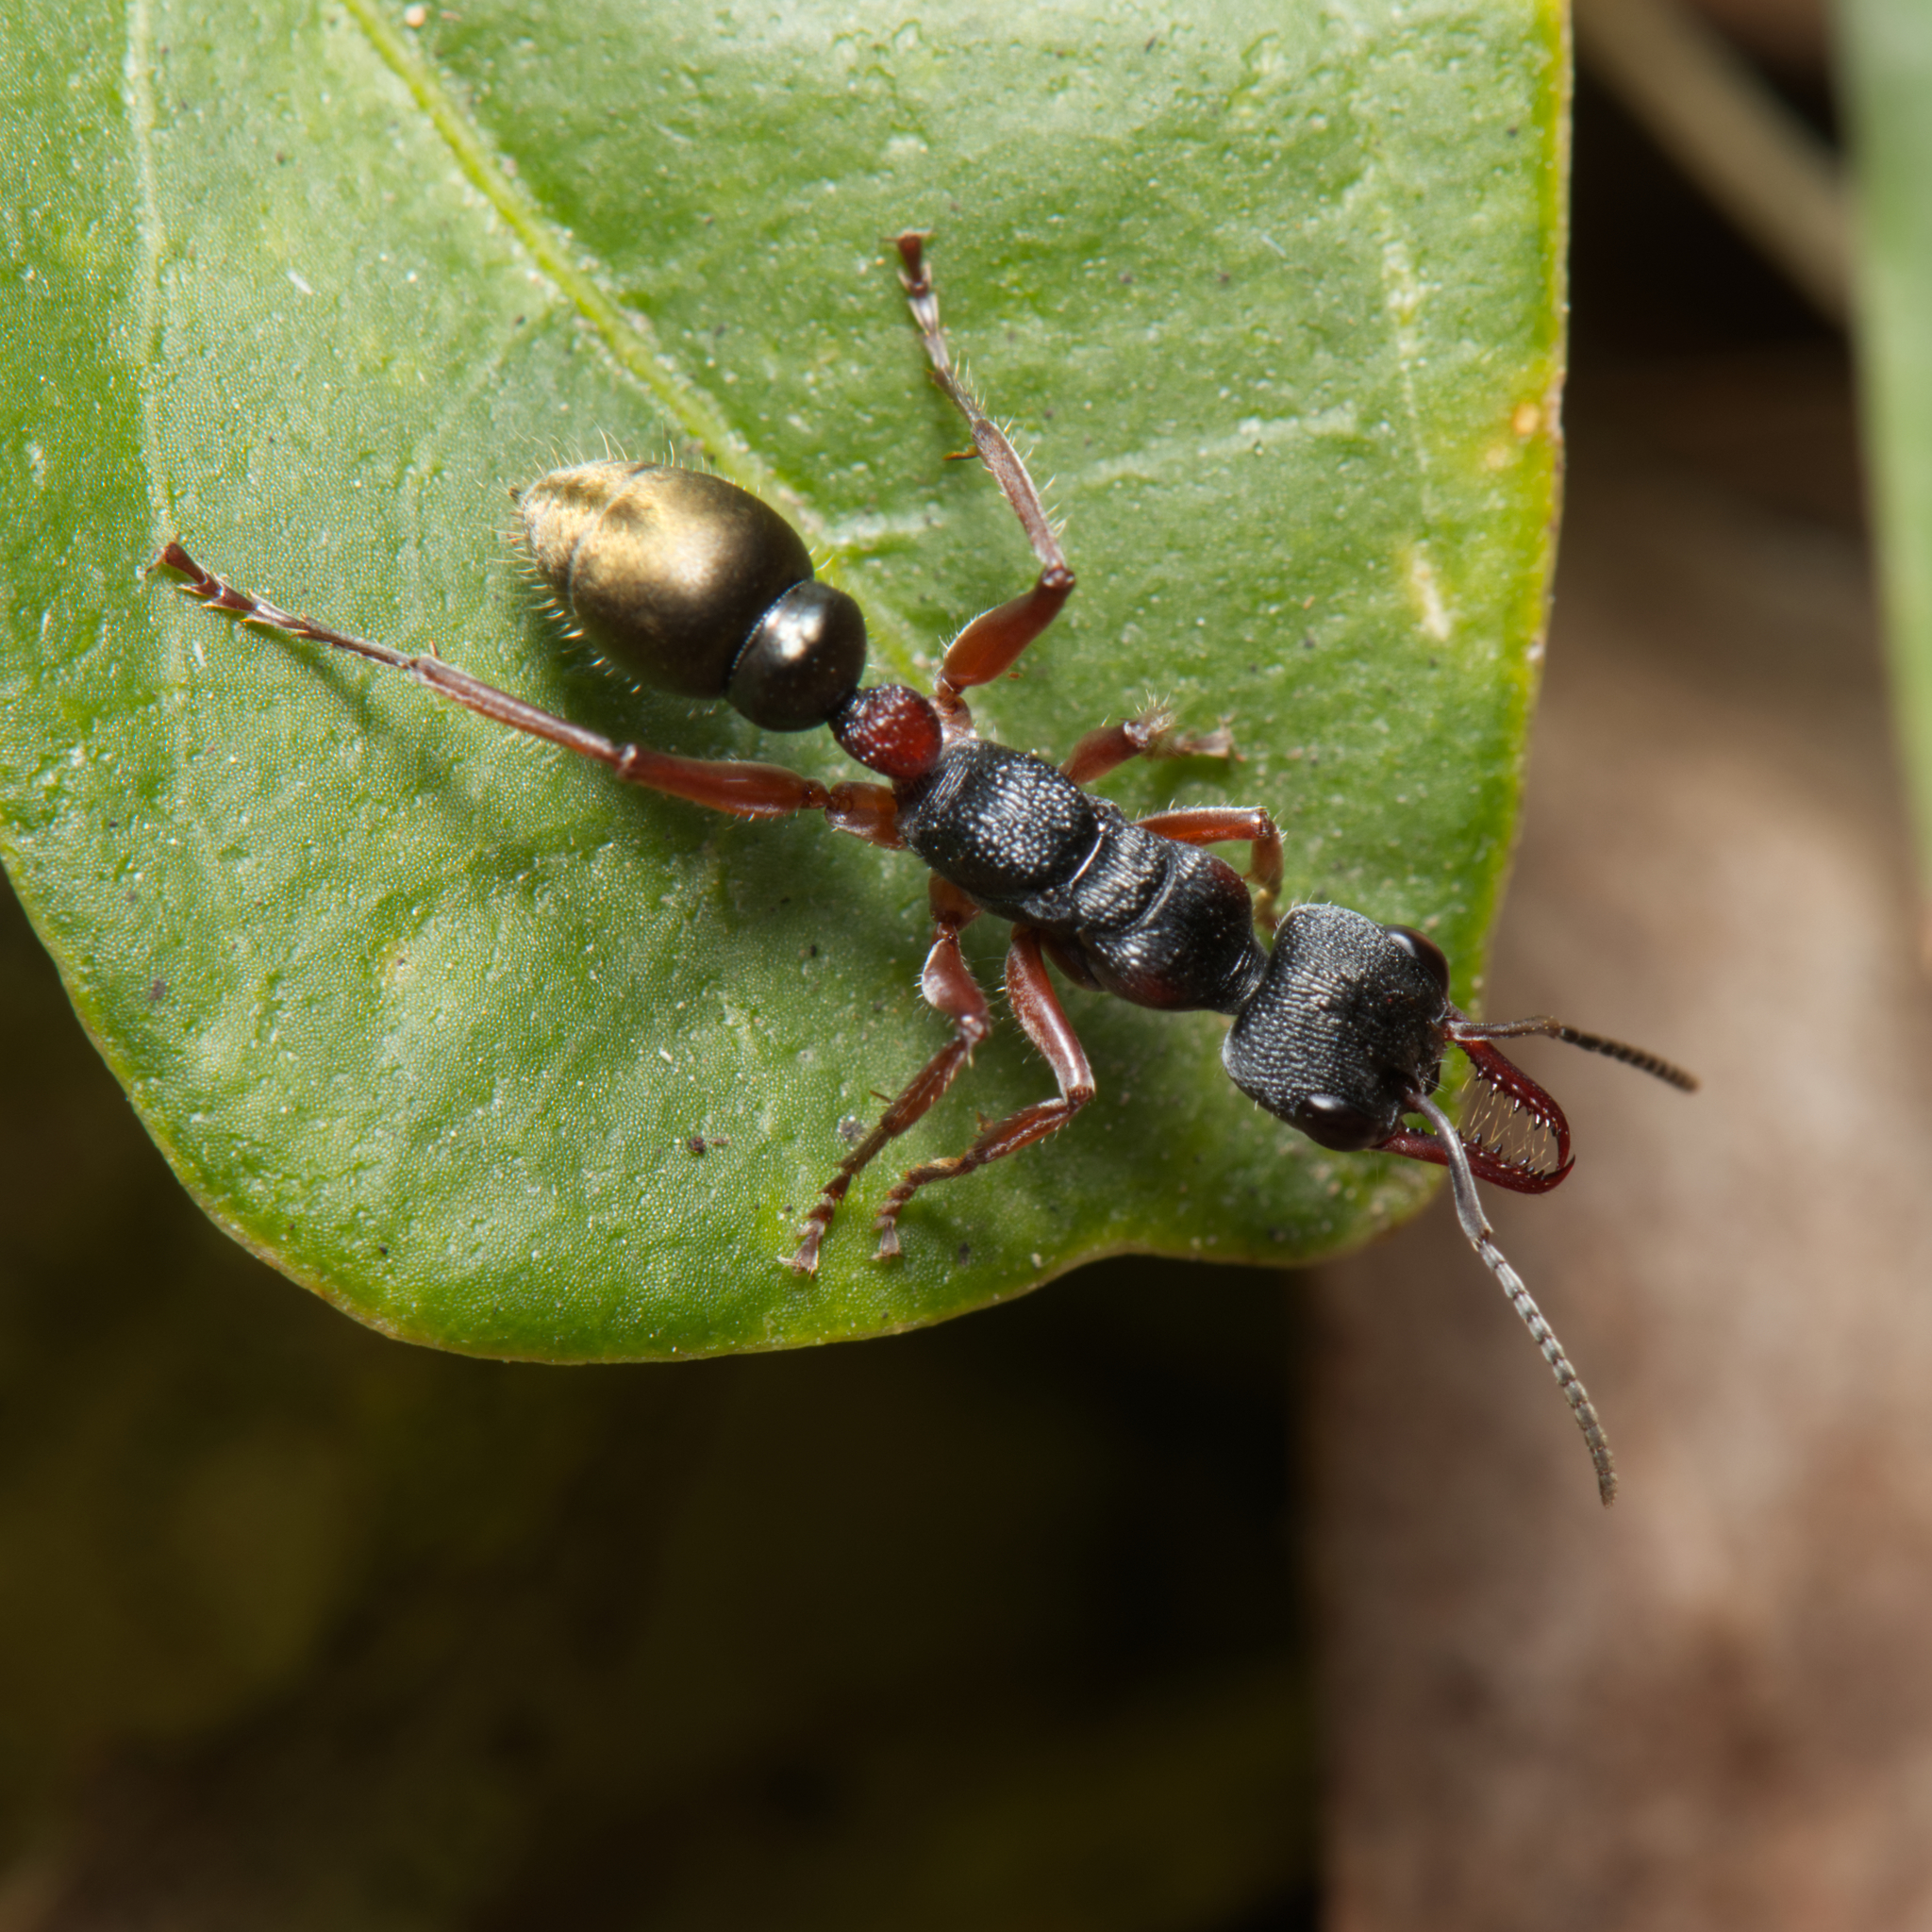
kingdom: Animalia
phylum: Arthropoda
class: Insecta
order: Hymenoptera
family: Formicidae
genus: Myrmecia
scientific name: Myrmecia chrysogaster
